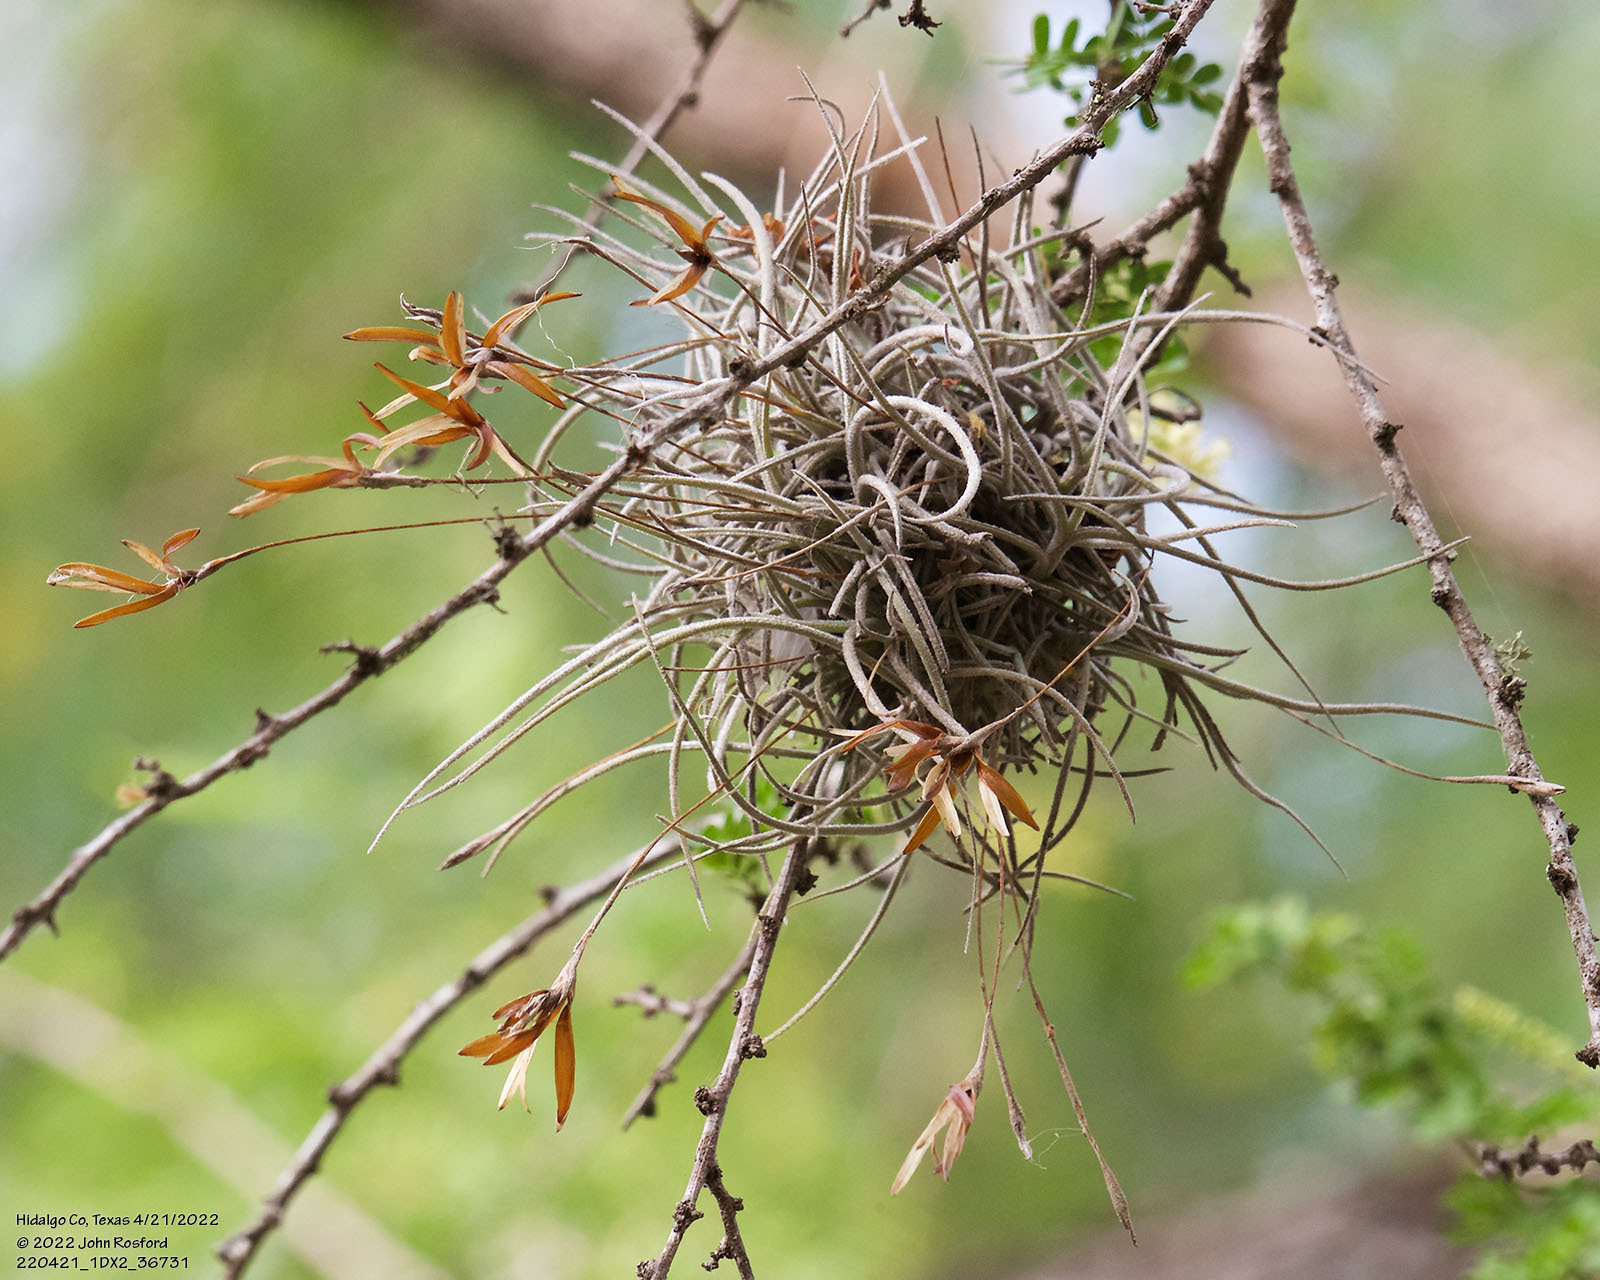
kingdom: Plantae
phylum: Tracheophyta
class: Liliopsida
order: Poales
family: Bromeliaceae
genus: Tillandsia
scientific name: Tillandsia recurvata
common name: Small ballmoss
